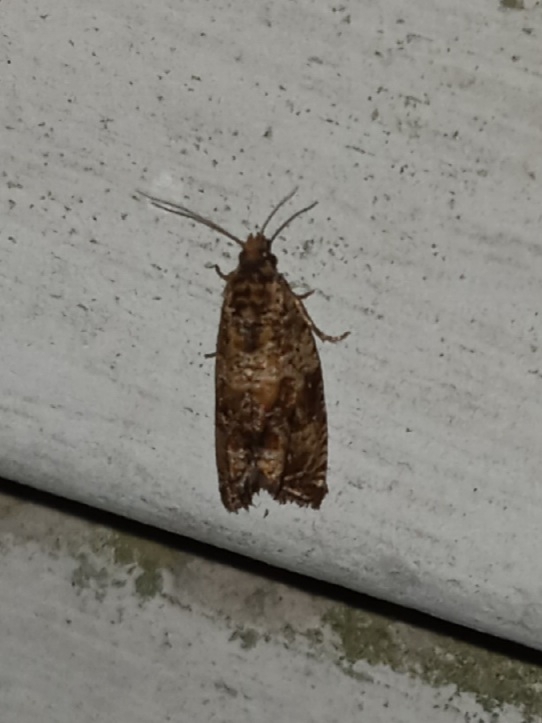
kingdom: Animalia
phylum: Arthropoda
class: Insecta
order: Lepidoptera
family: Tortricidae
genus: Celypha
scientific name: Celypha cespitana
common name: Thyme marble
